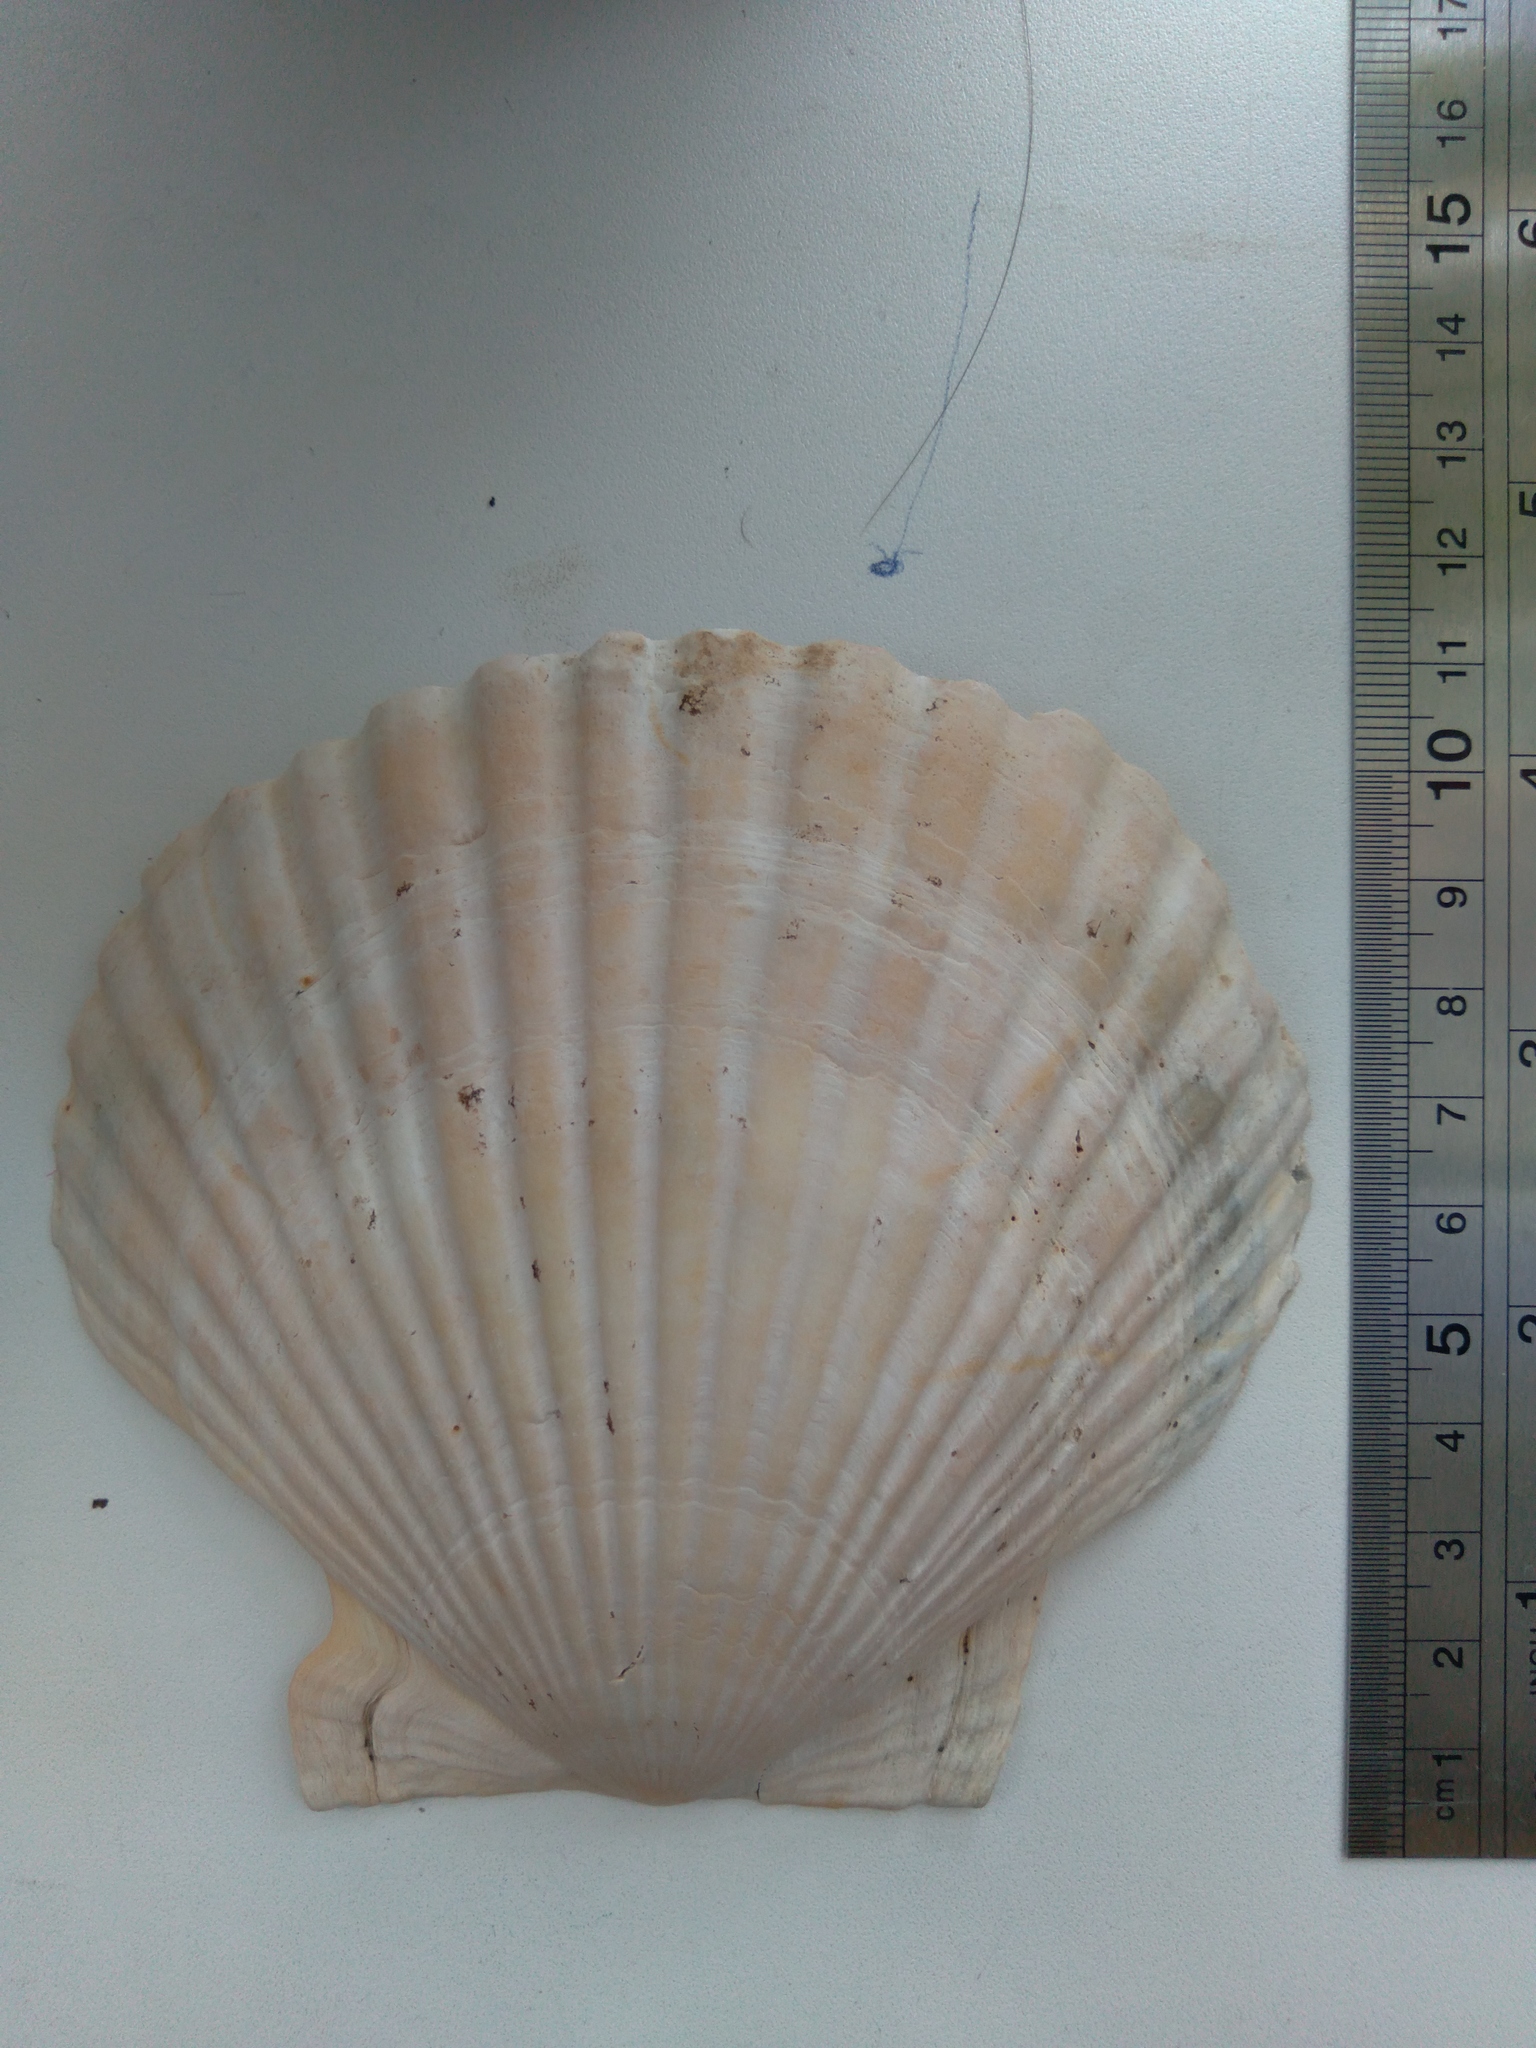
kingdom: Animalia
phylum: Mollusca
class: Bivalvia
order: Pectinida
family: Pectinidae
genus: Mizuhopecten
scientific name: Mizuhopecten yessoensis
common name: Ezo giant scallop
